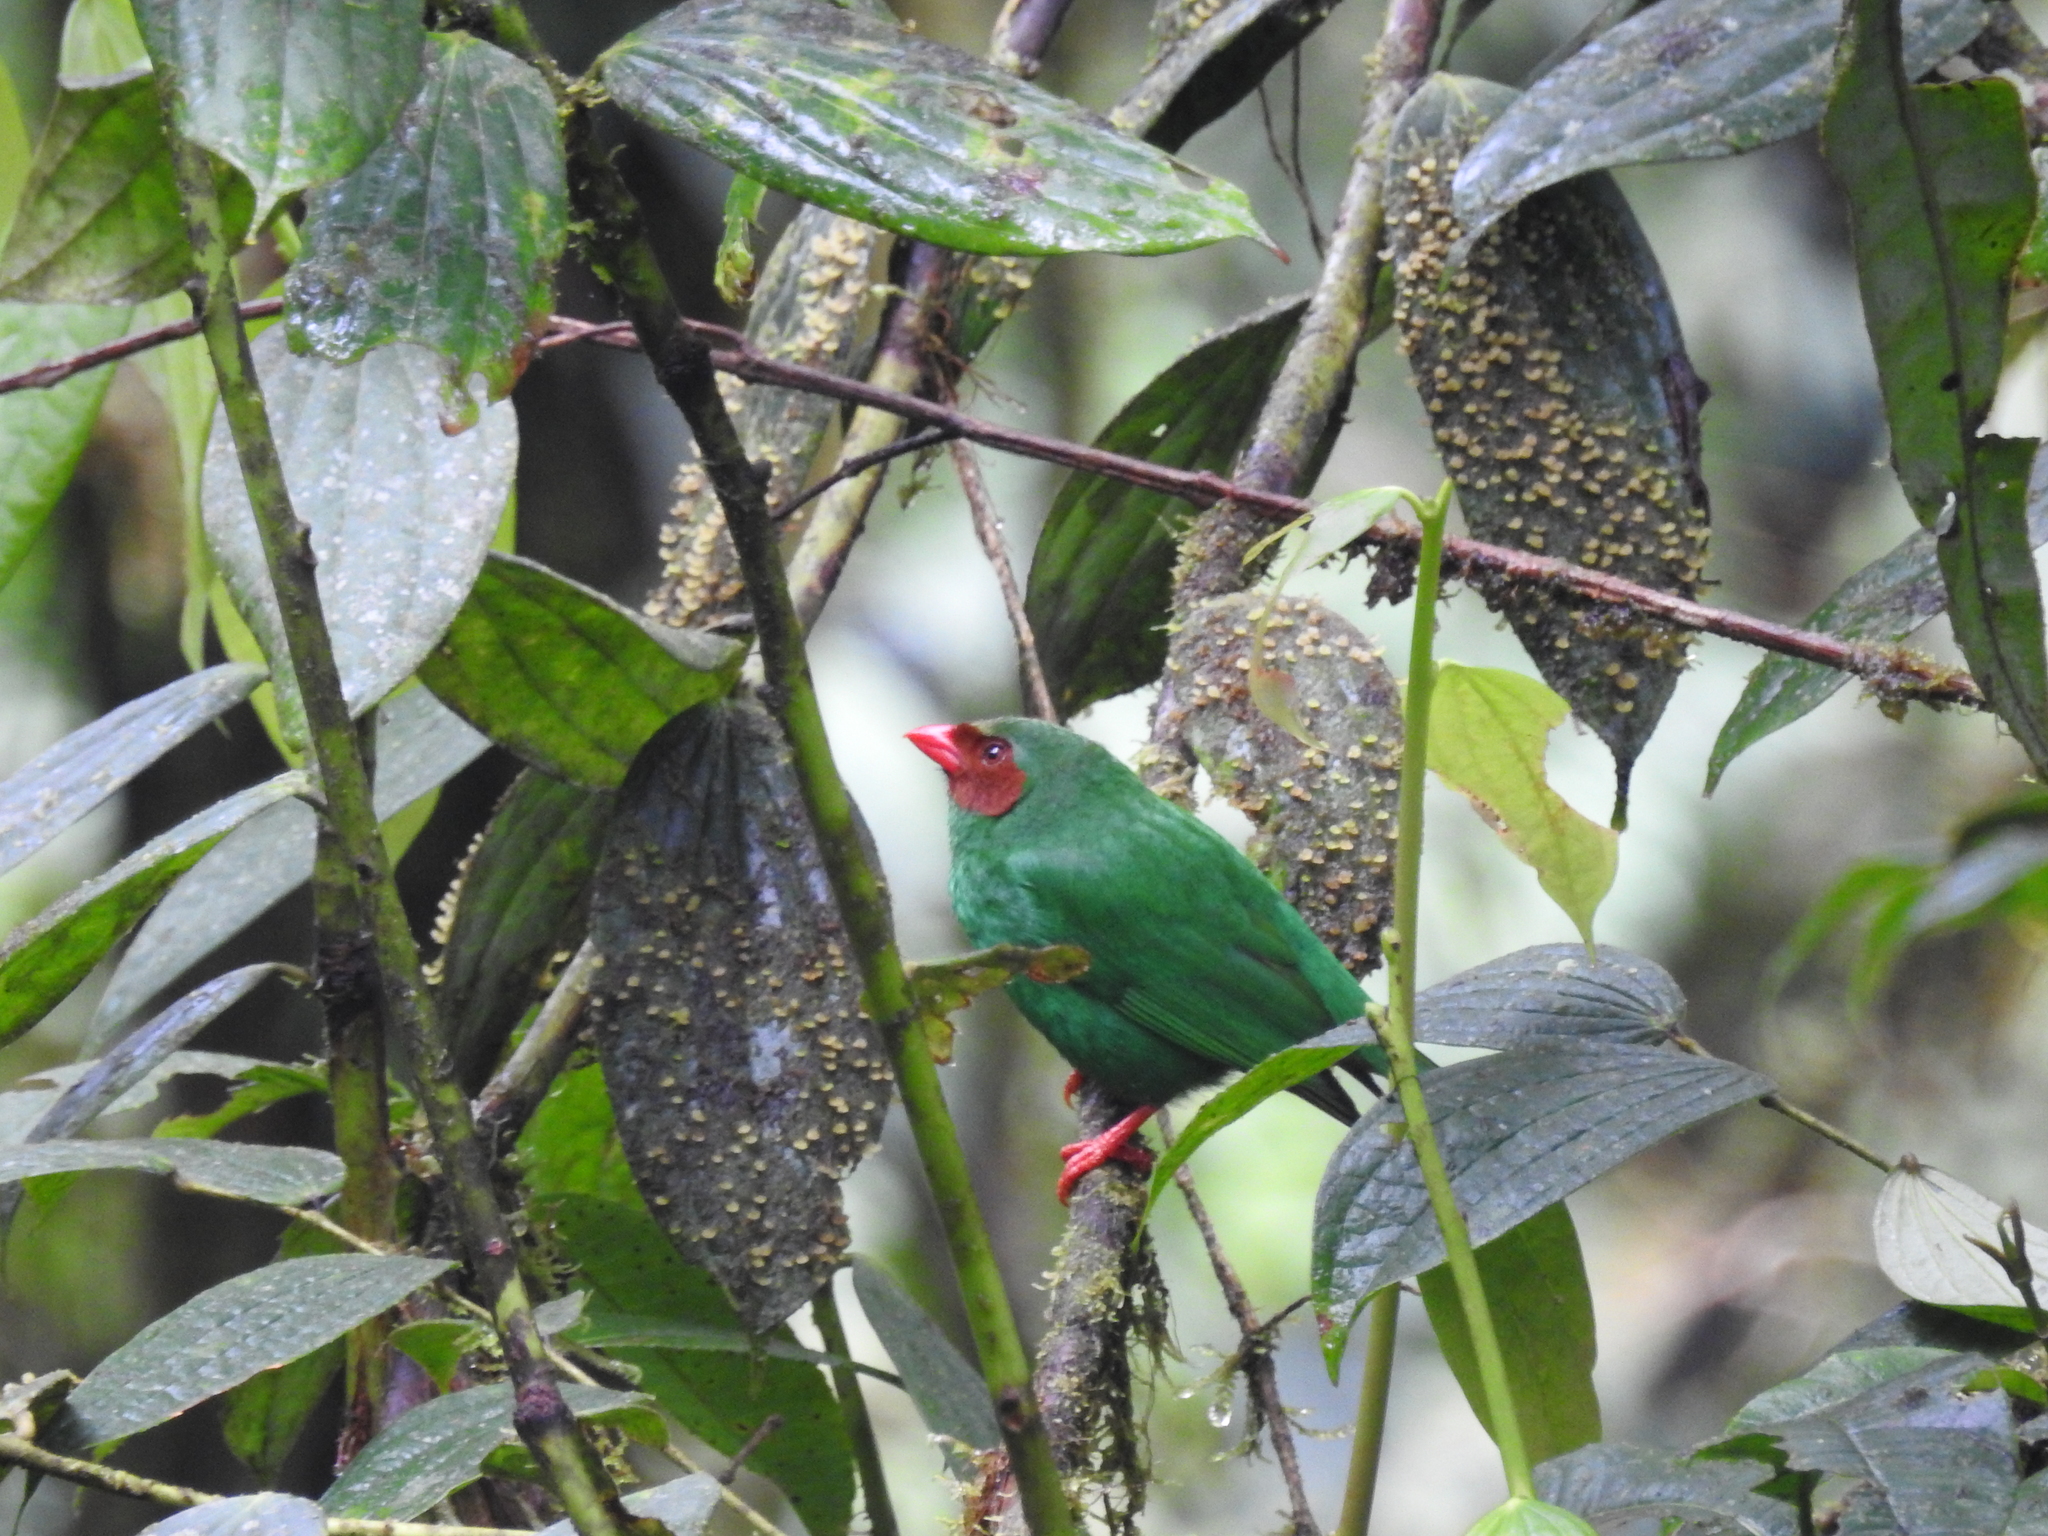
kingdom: Animalia
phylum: Chordata
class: Aves
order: Passeriformes
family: Thraupidae
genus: Chlorornis
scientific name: Chlorornis riefferii
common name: Grass-green tanager
